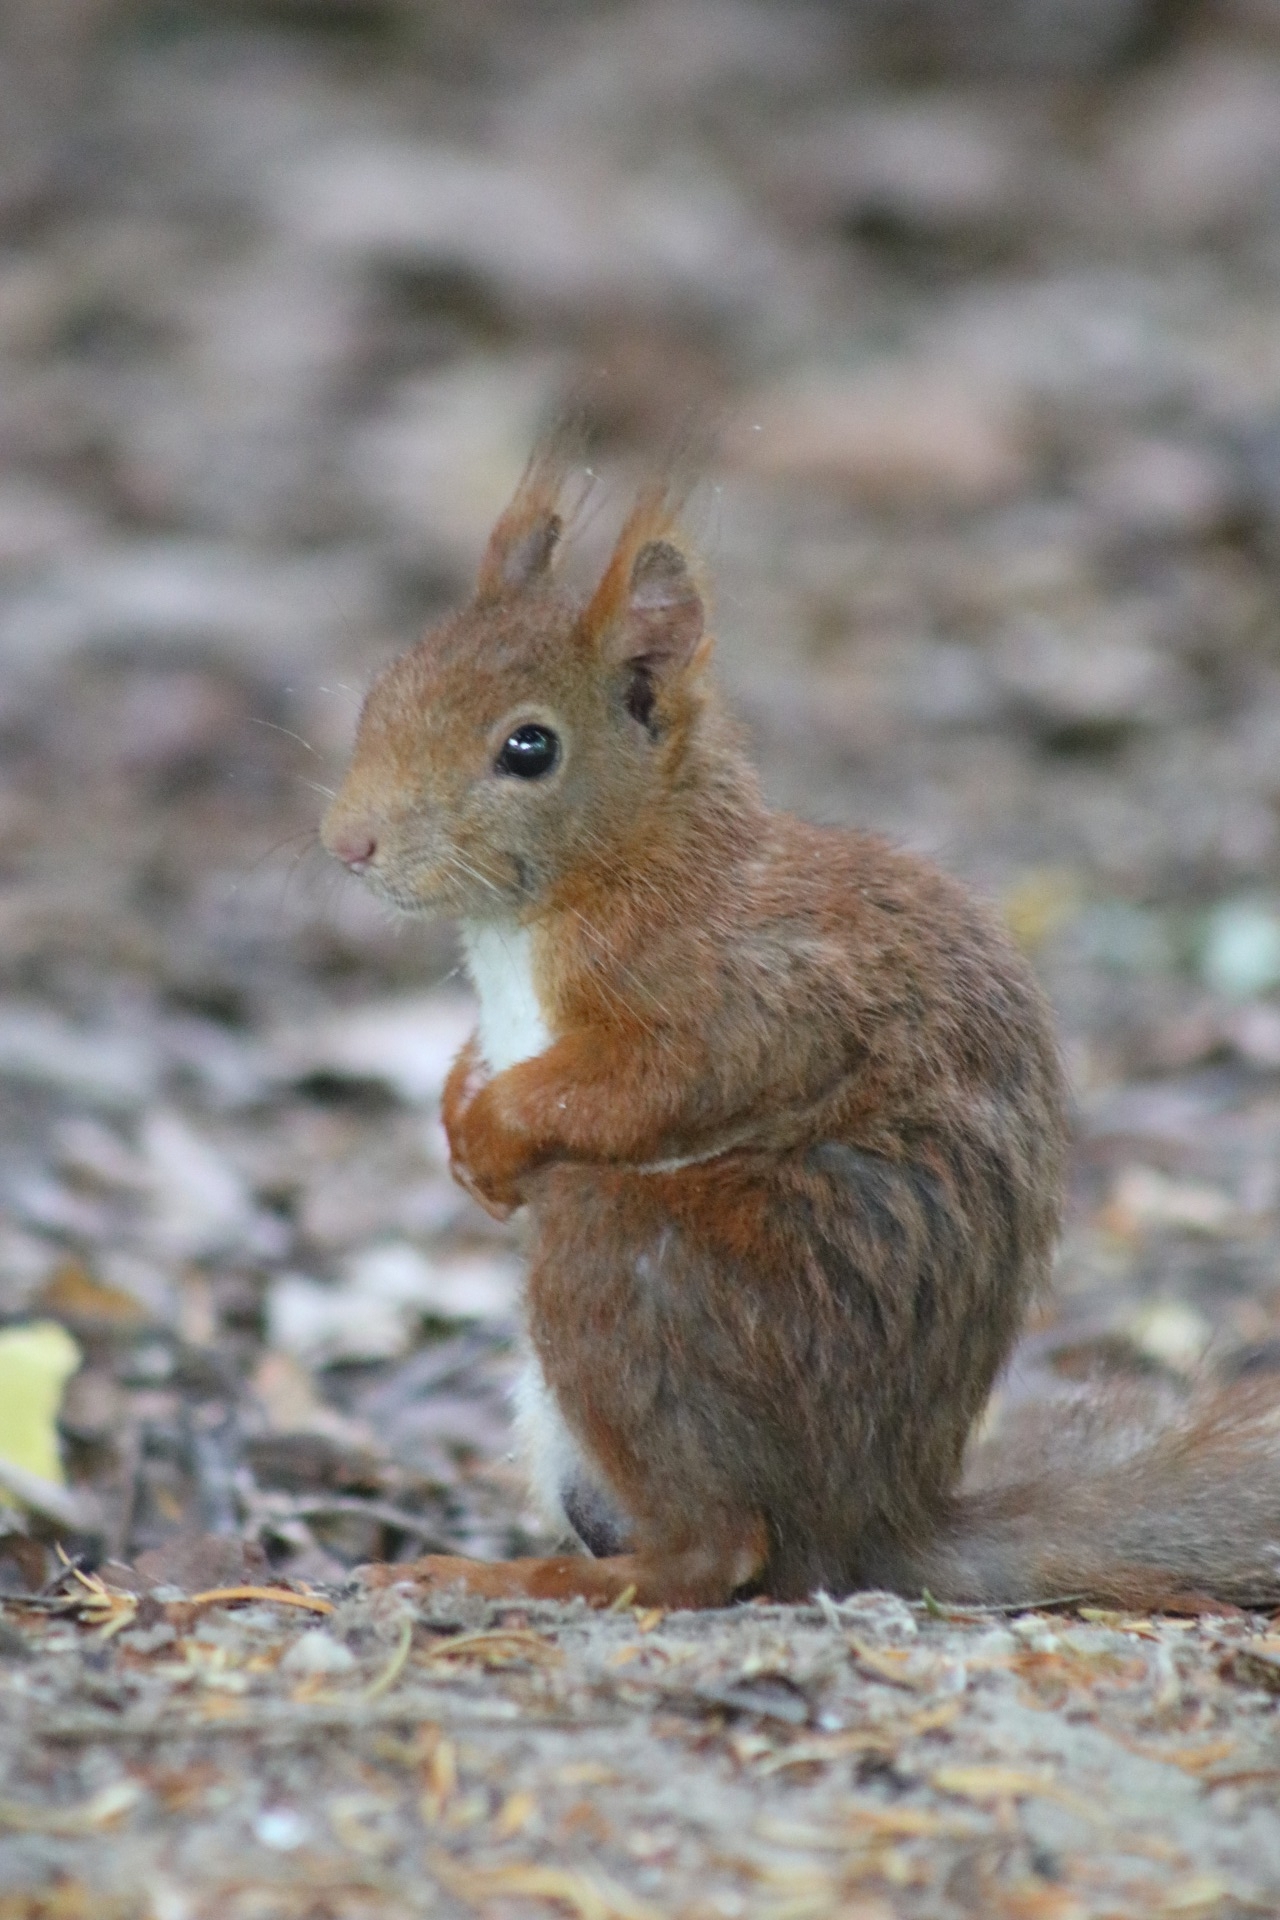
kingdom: Animalia
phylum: Chordata
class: Mammalia
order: Rodentia
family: Sciuridae
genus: Sciurus
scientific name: Sciurus vulgaris
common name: Eurasian red squirrel
